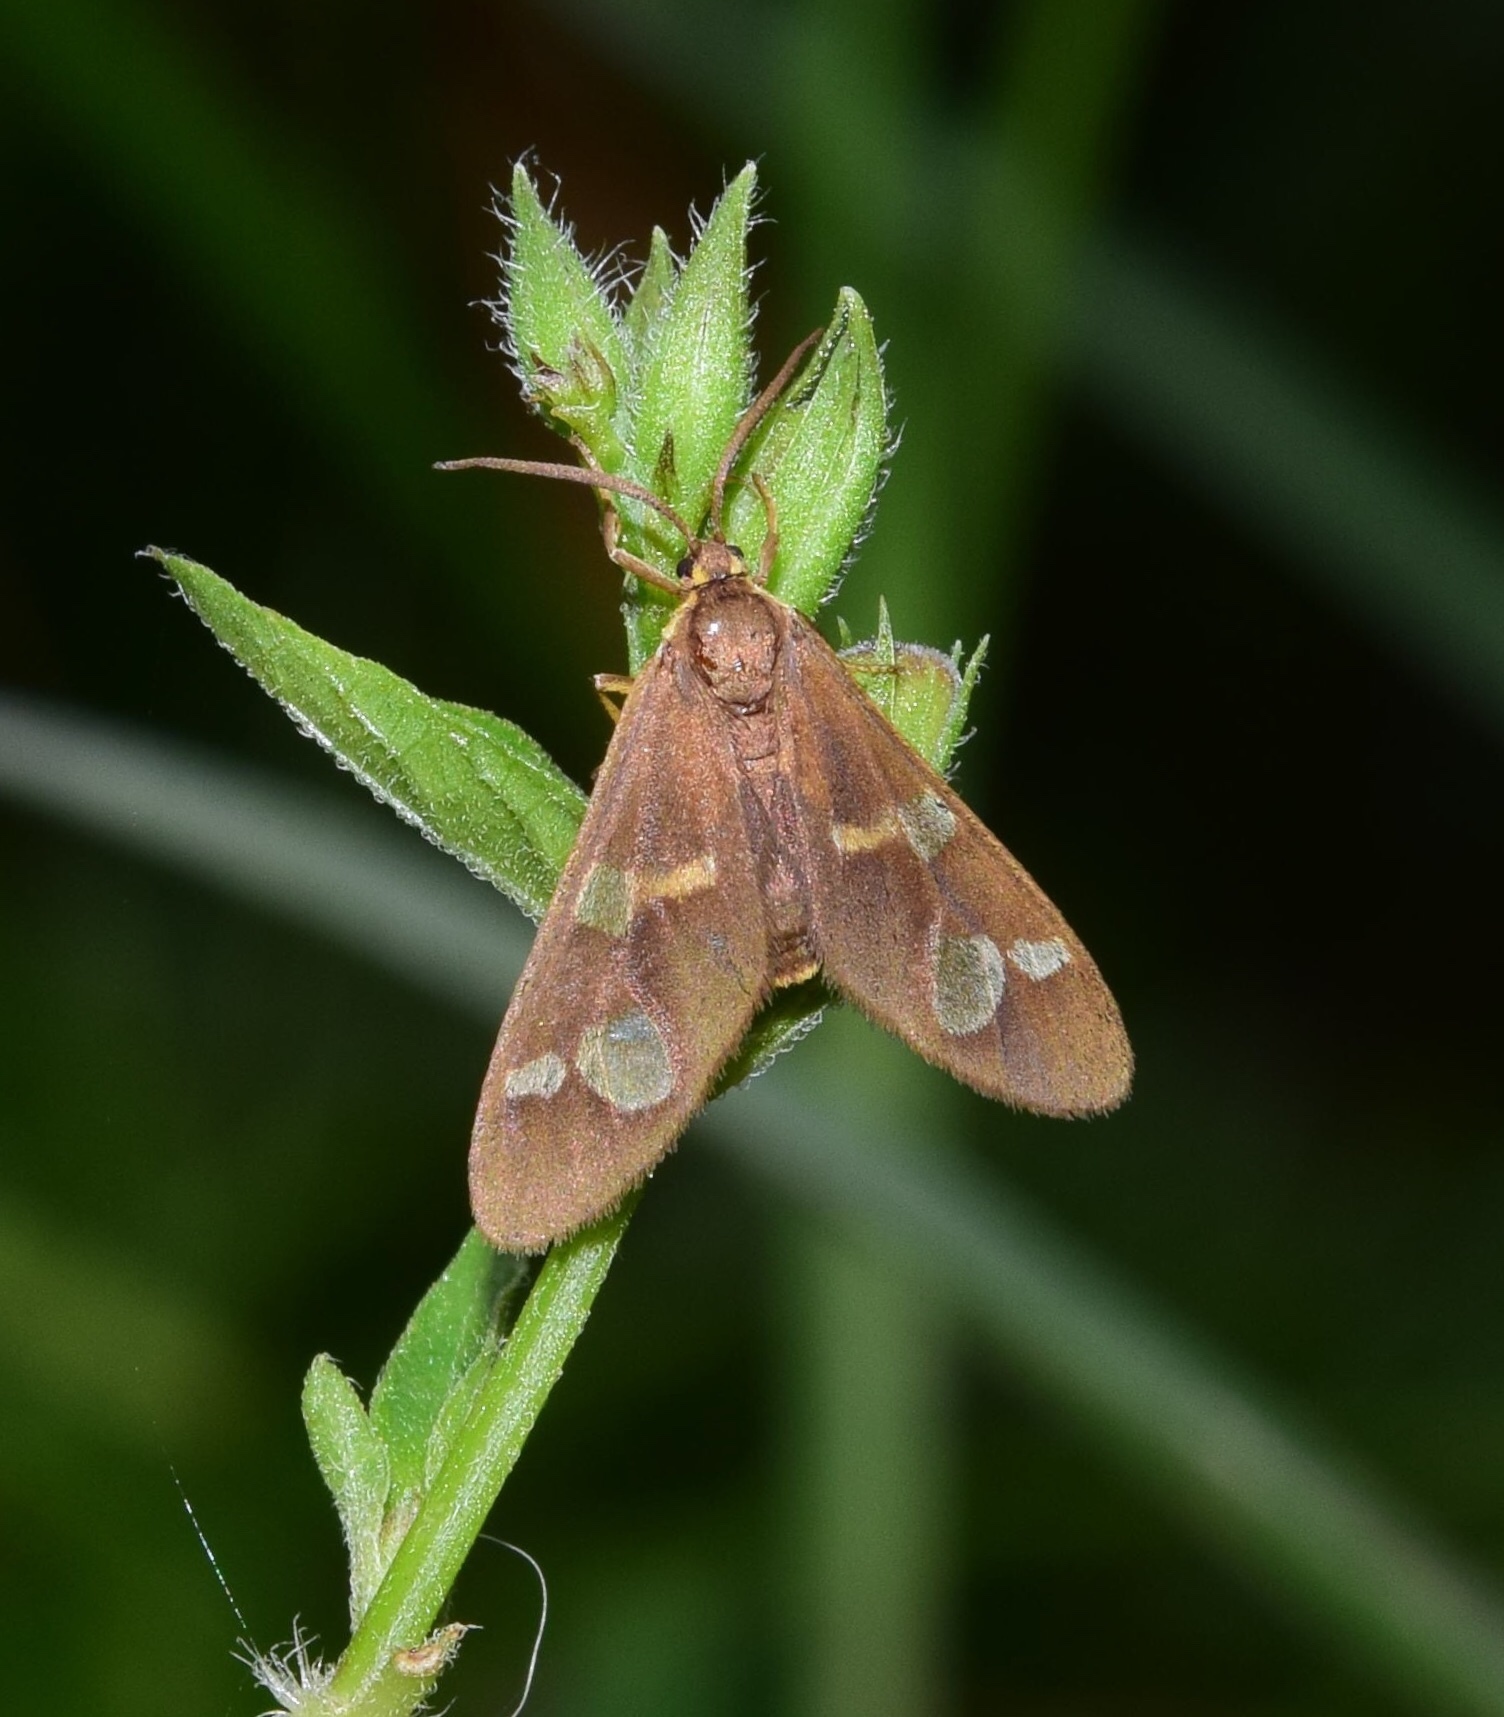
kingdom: Animalia
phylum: Arthropoda
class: Insecta
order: Lepidoptera
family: Erebidae
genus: Pseudonaclia
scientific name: Pseudonaclia puella
